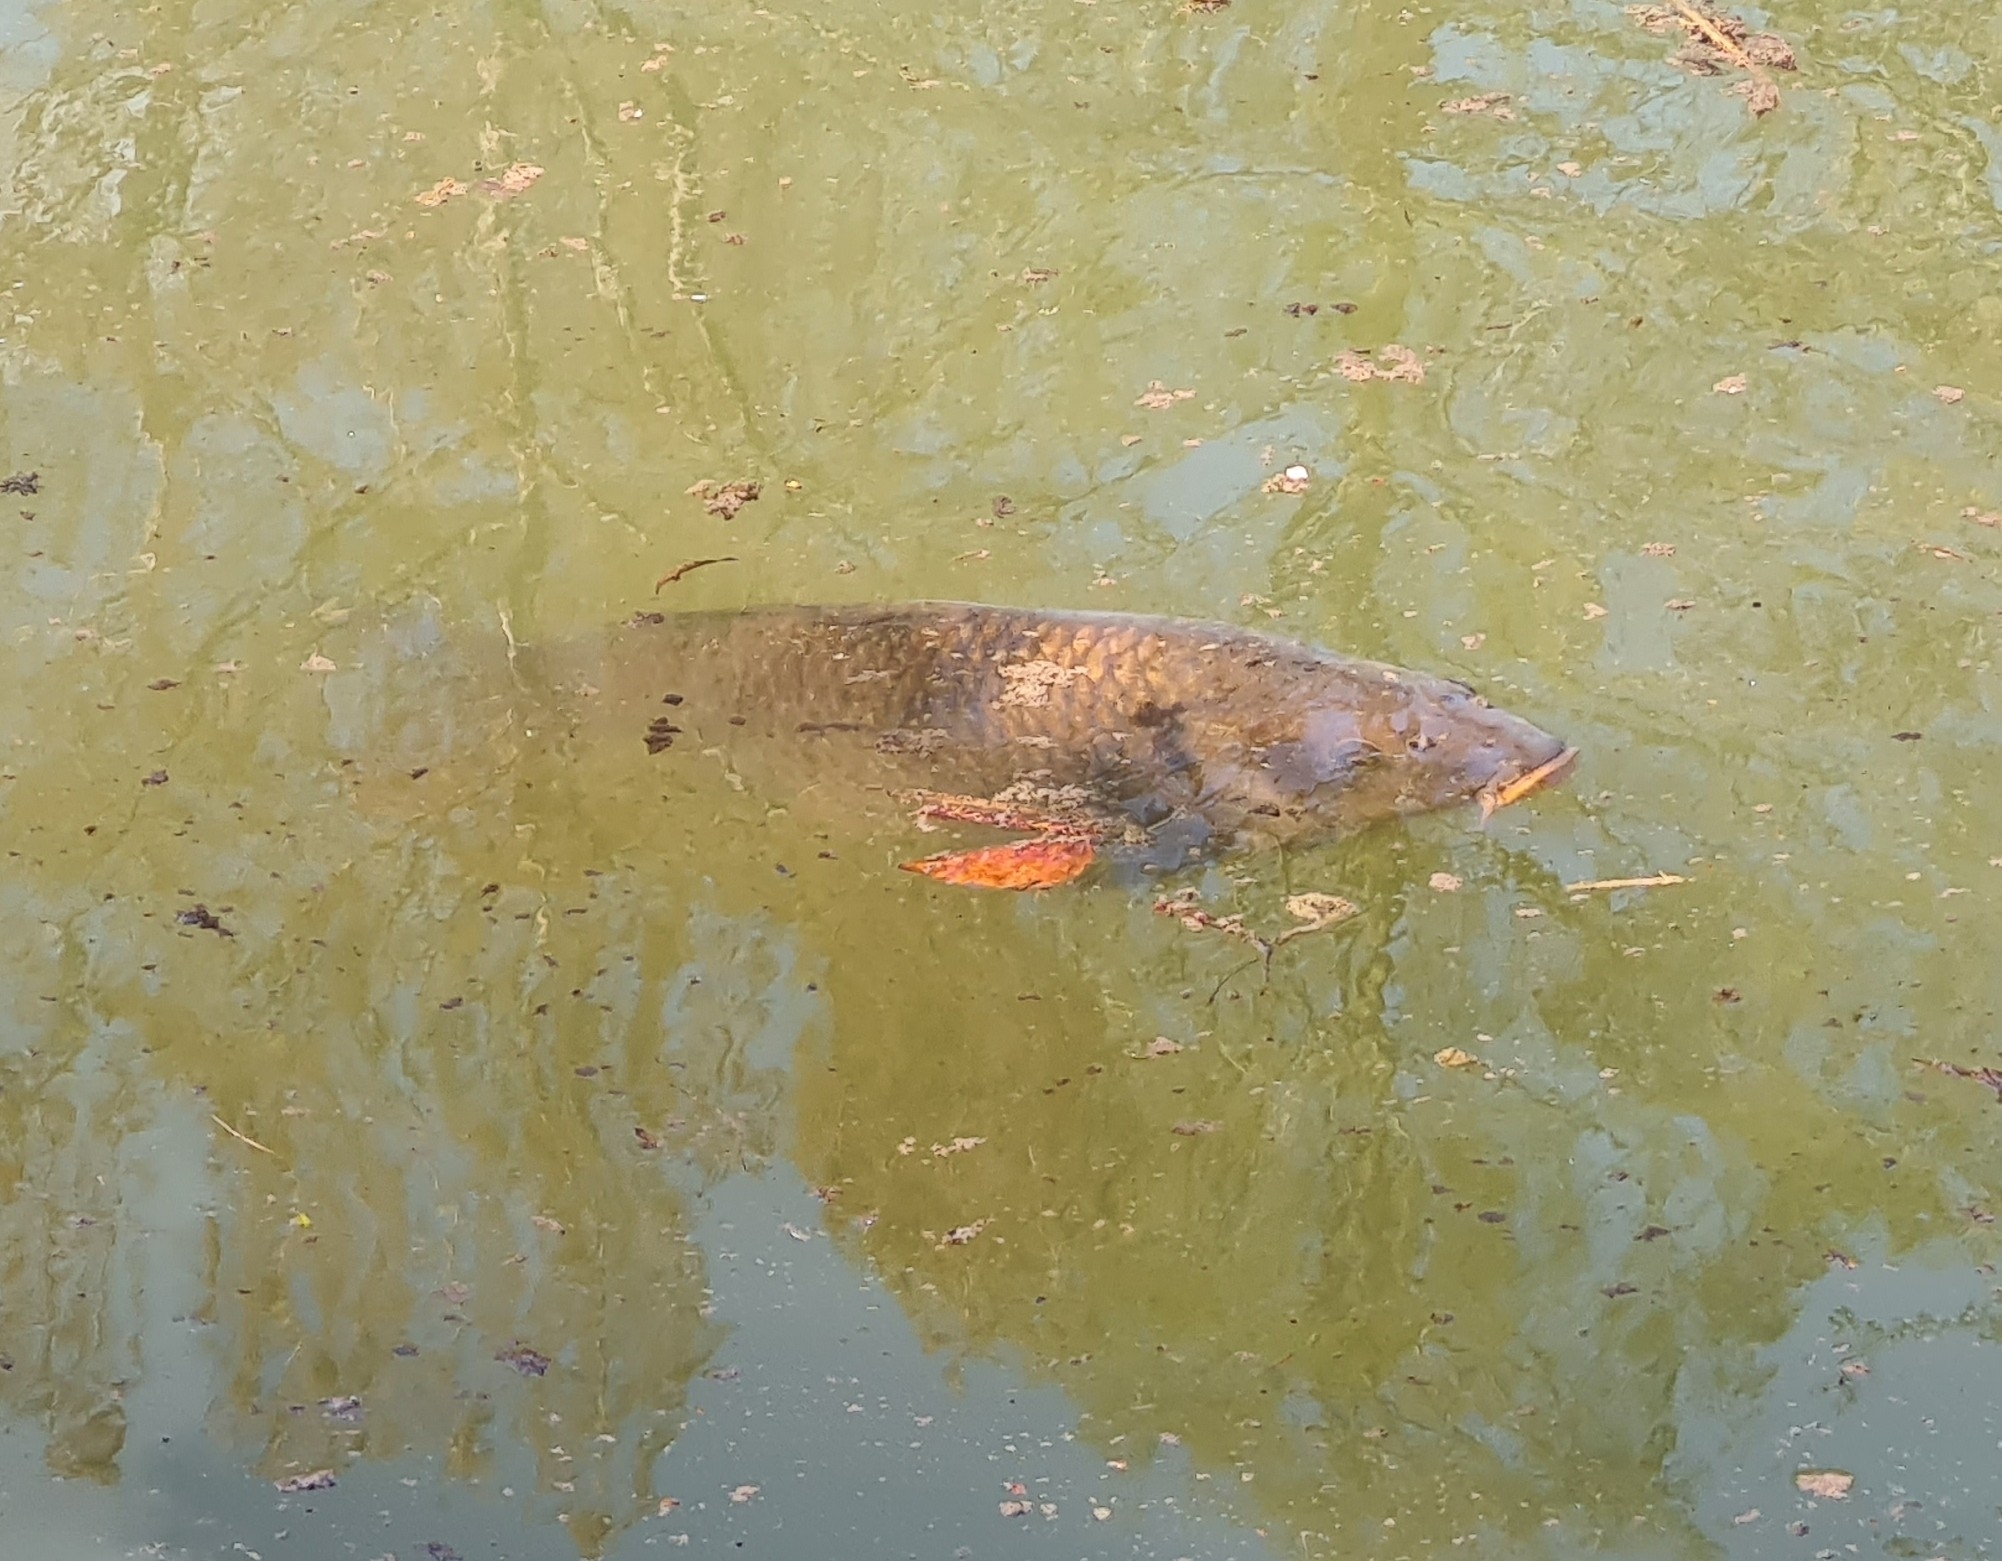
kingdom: Animalia
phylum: Chordata
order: Cypriniformes
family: Cyprinidae
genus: Cyprinus
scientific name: Cyprinus carpio
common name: Common carp
